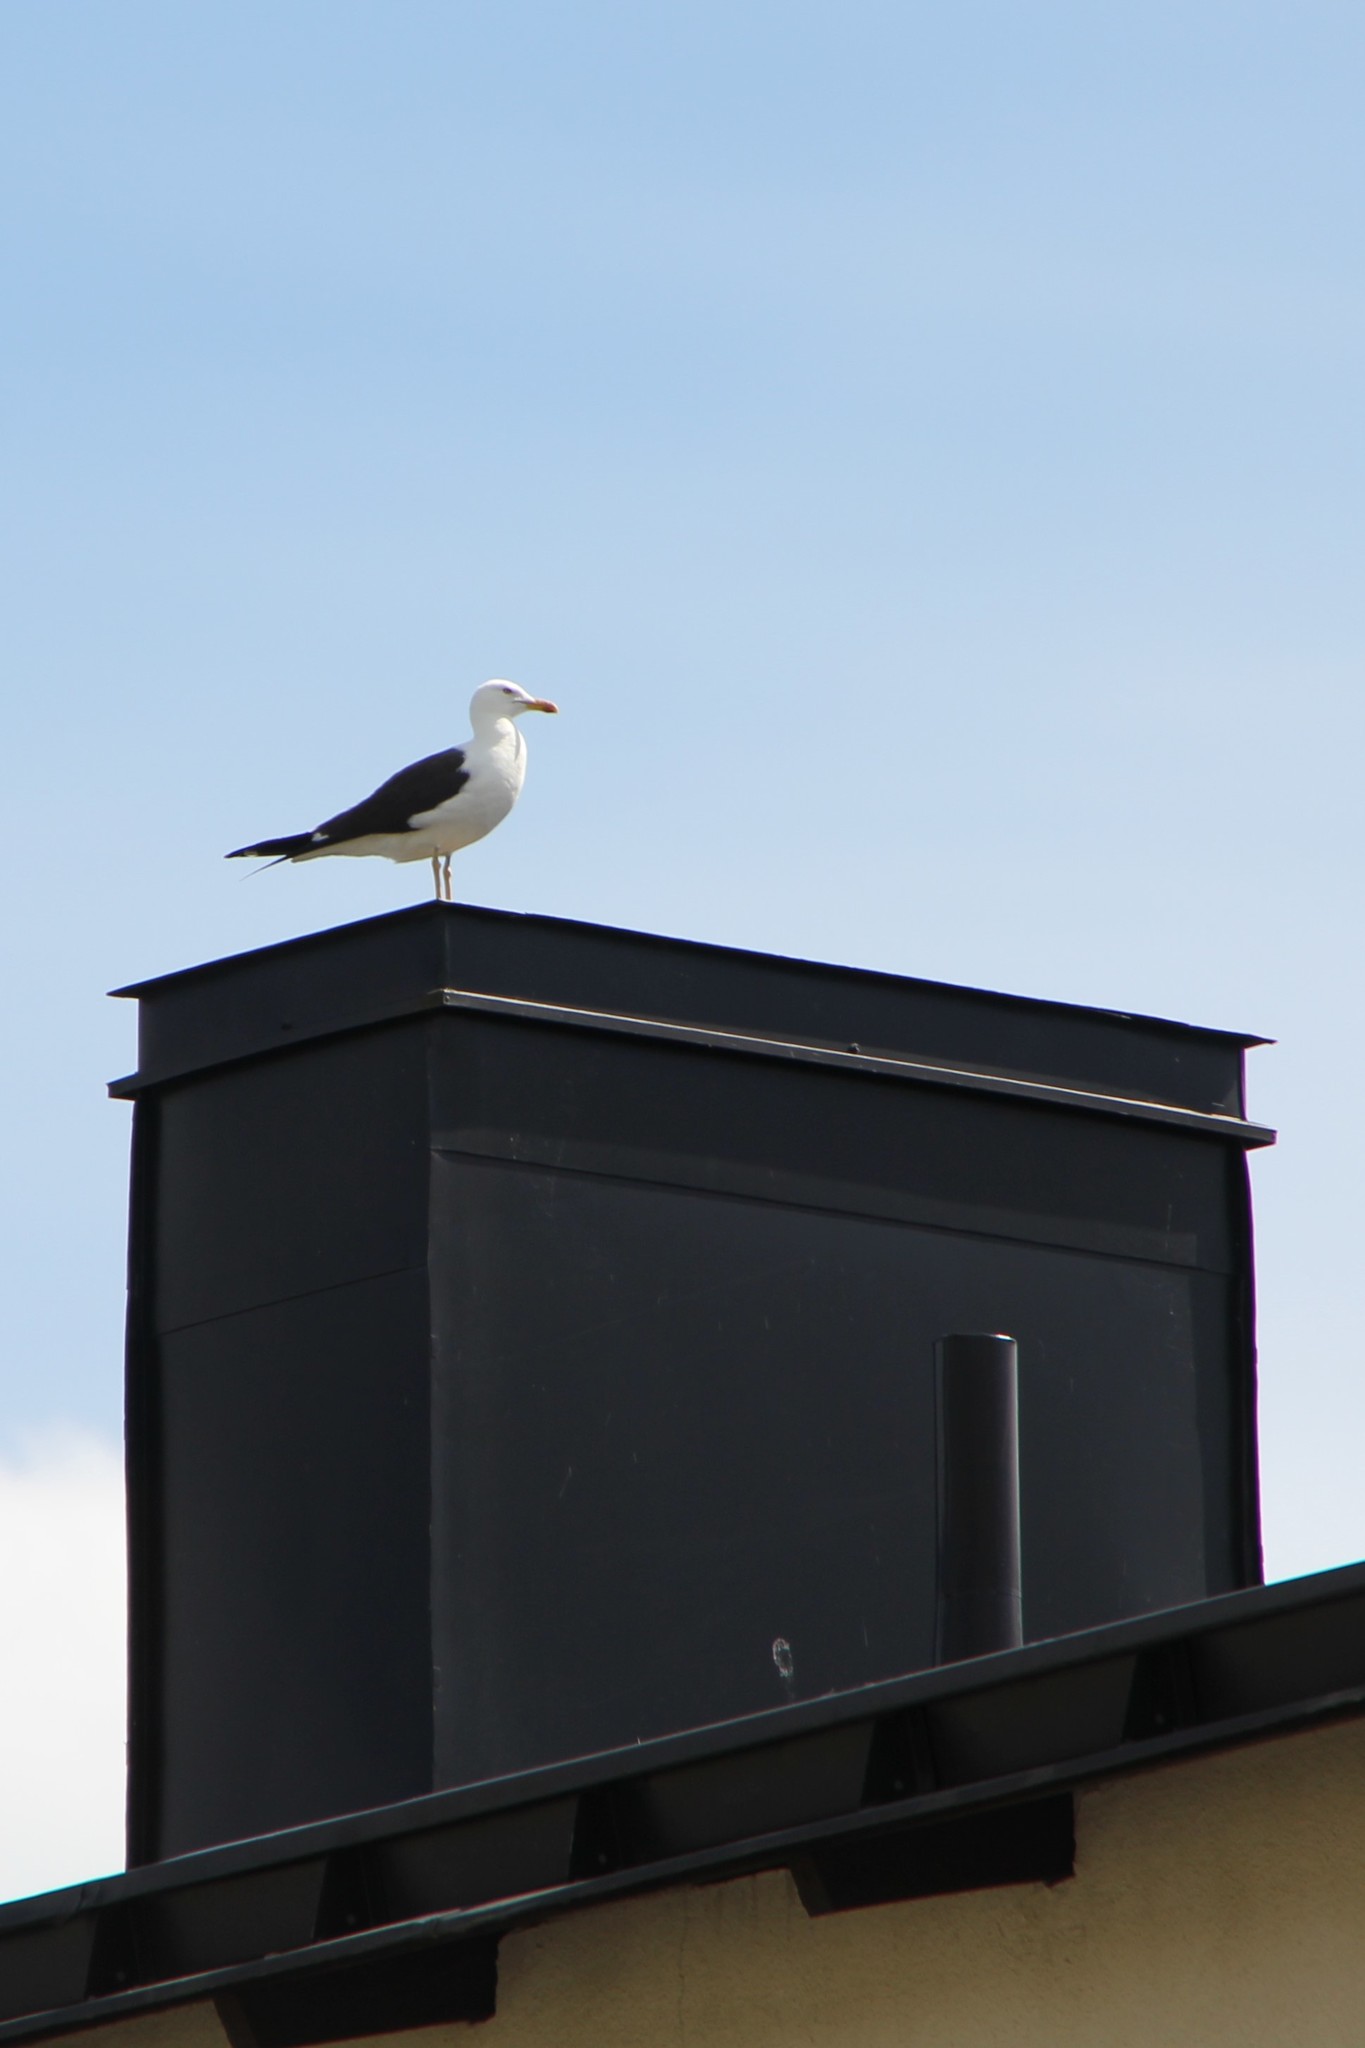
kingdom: Animalia
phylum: Chordata
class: Aves
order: Charadriiformes
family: Laridae
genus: Larus
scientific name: Larus fuscus
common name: Lesser black-backed gull
